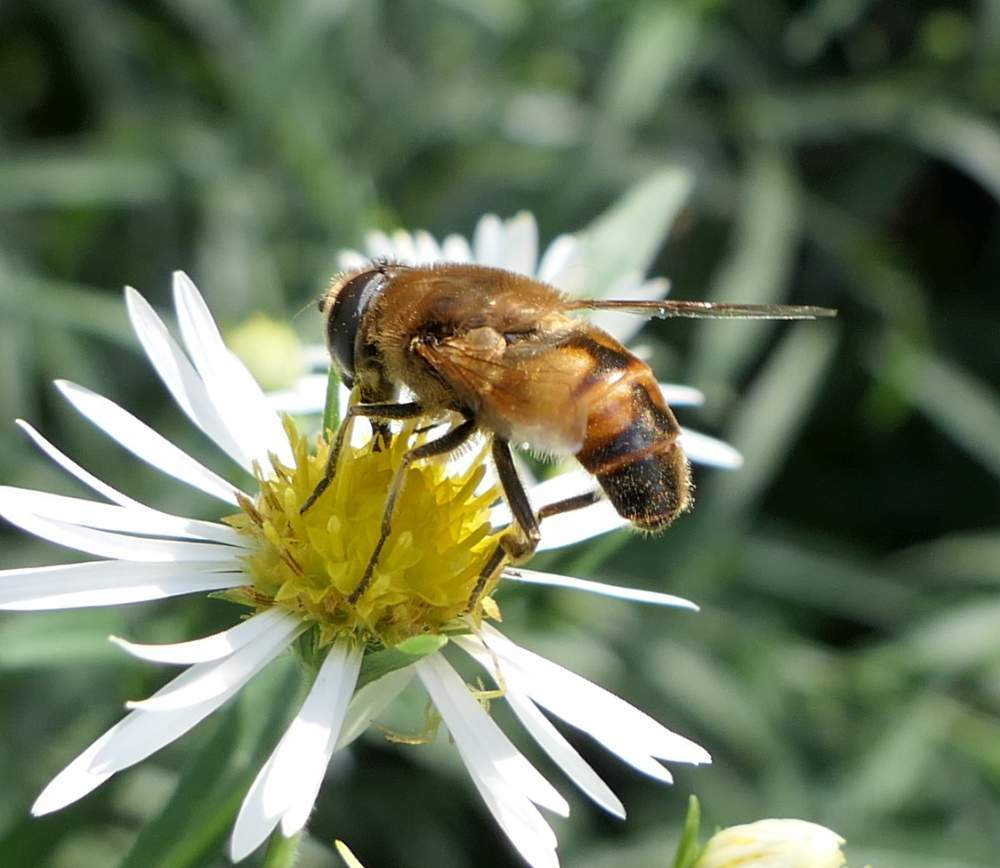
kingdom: Animalia
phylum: Arthropoda
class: Insecta
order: Diptera
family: Syrphidae
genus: Eristalis
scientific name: Eristalis tenax
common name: Drone fly
